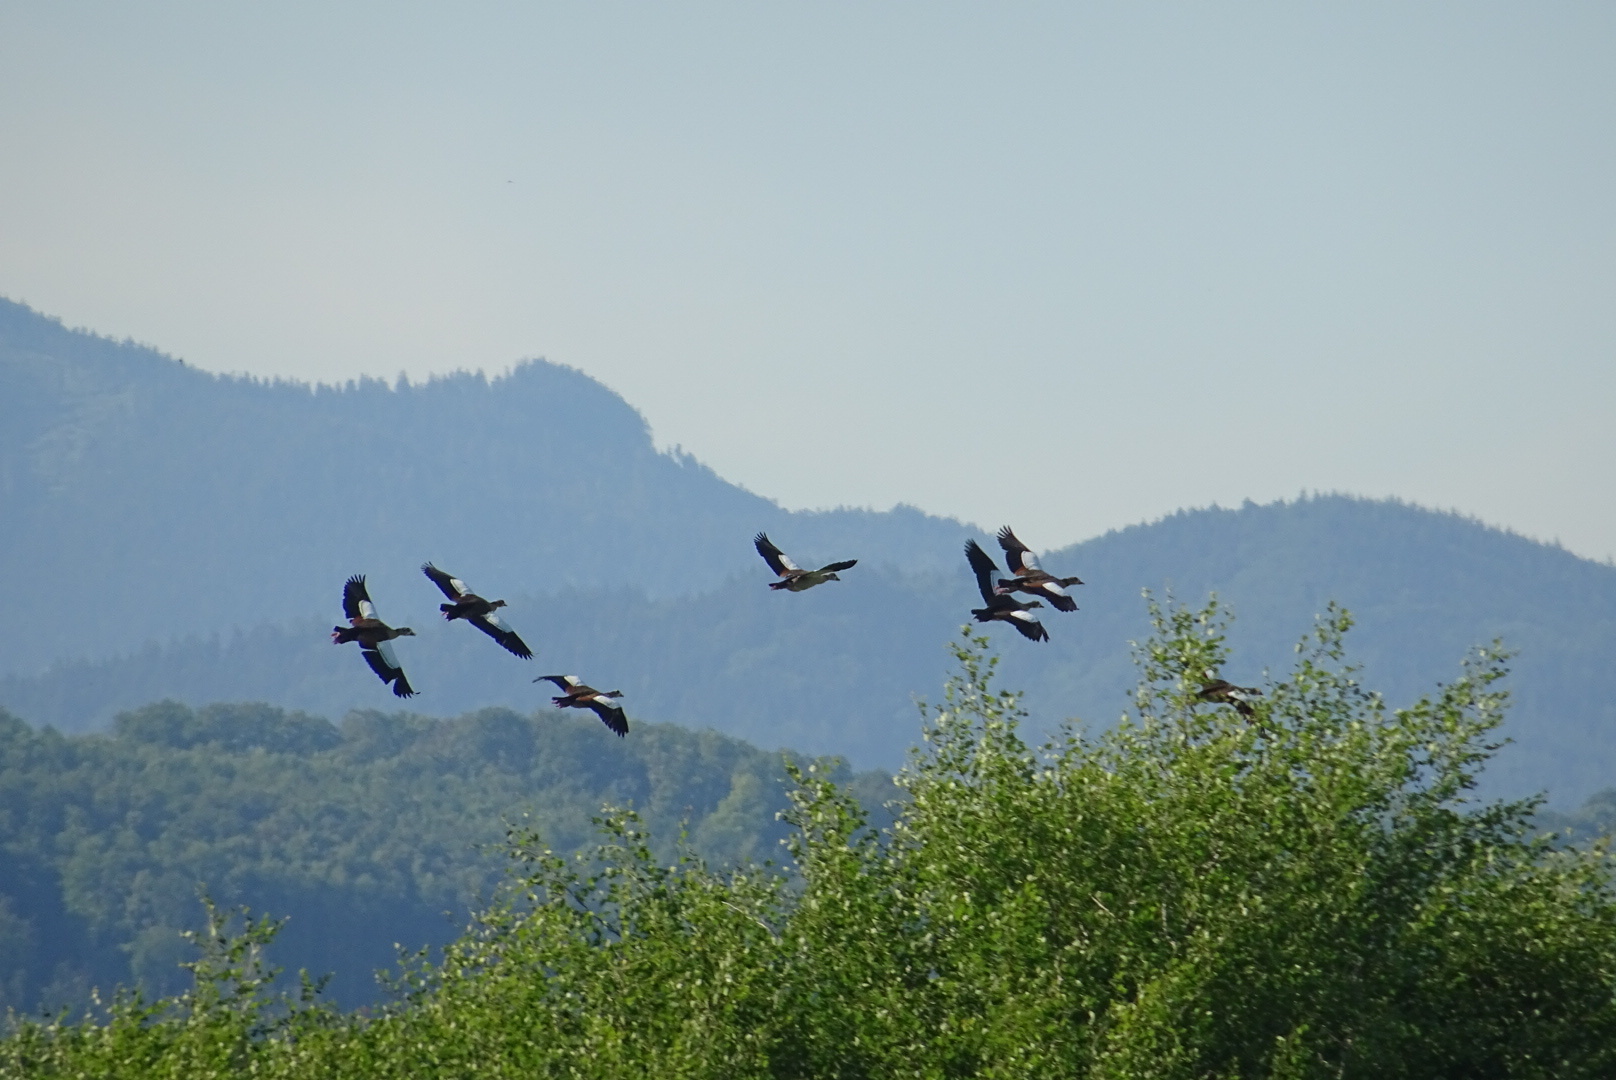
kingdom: Animalia
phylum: Chordata
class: Aves
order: Anseriformes
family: Anatidae
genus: Alopochen
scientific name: Alopochen aegyptiaca
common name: Egyptian goose
